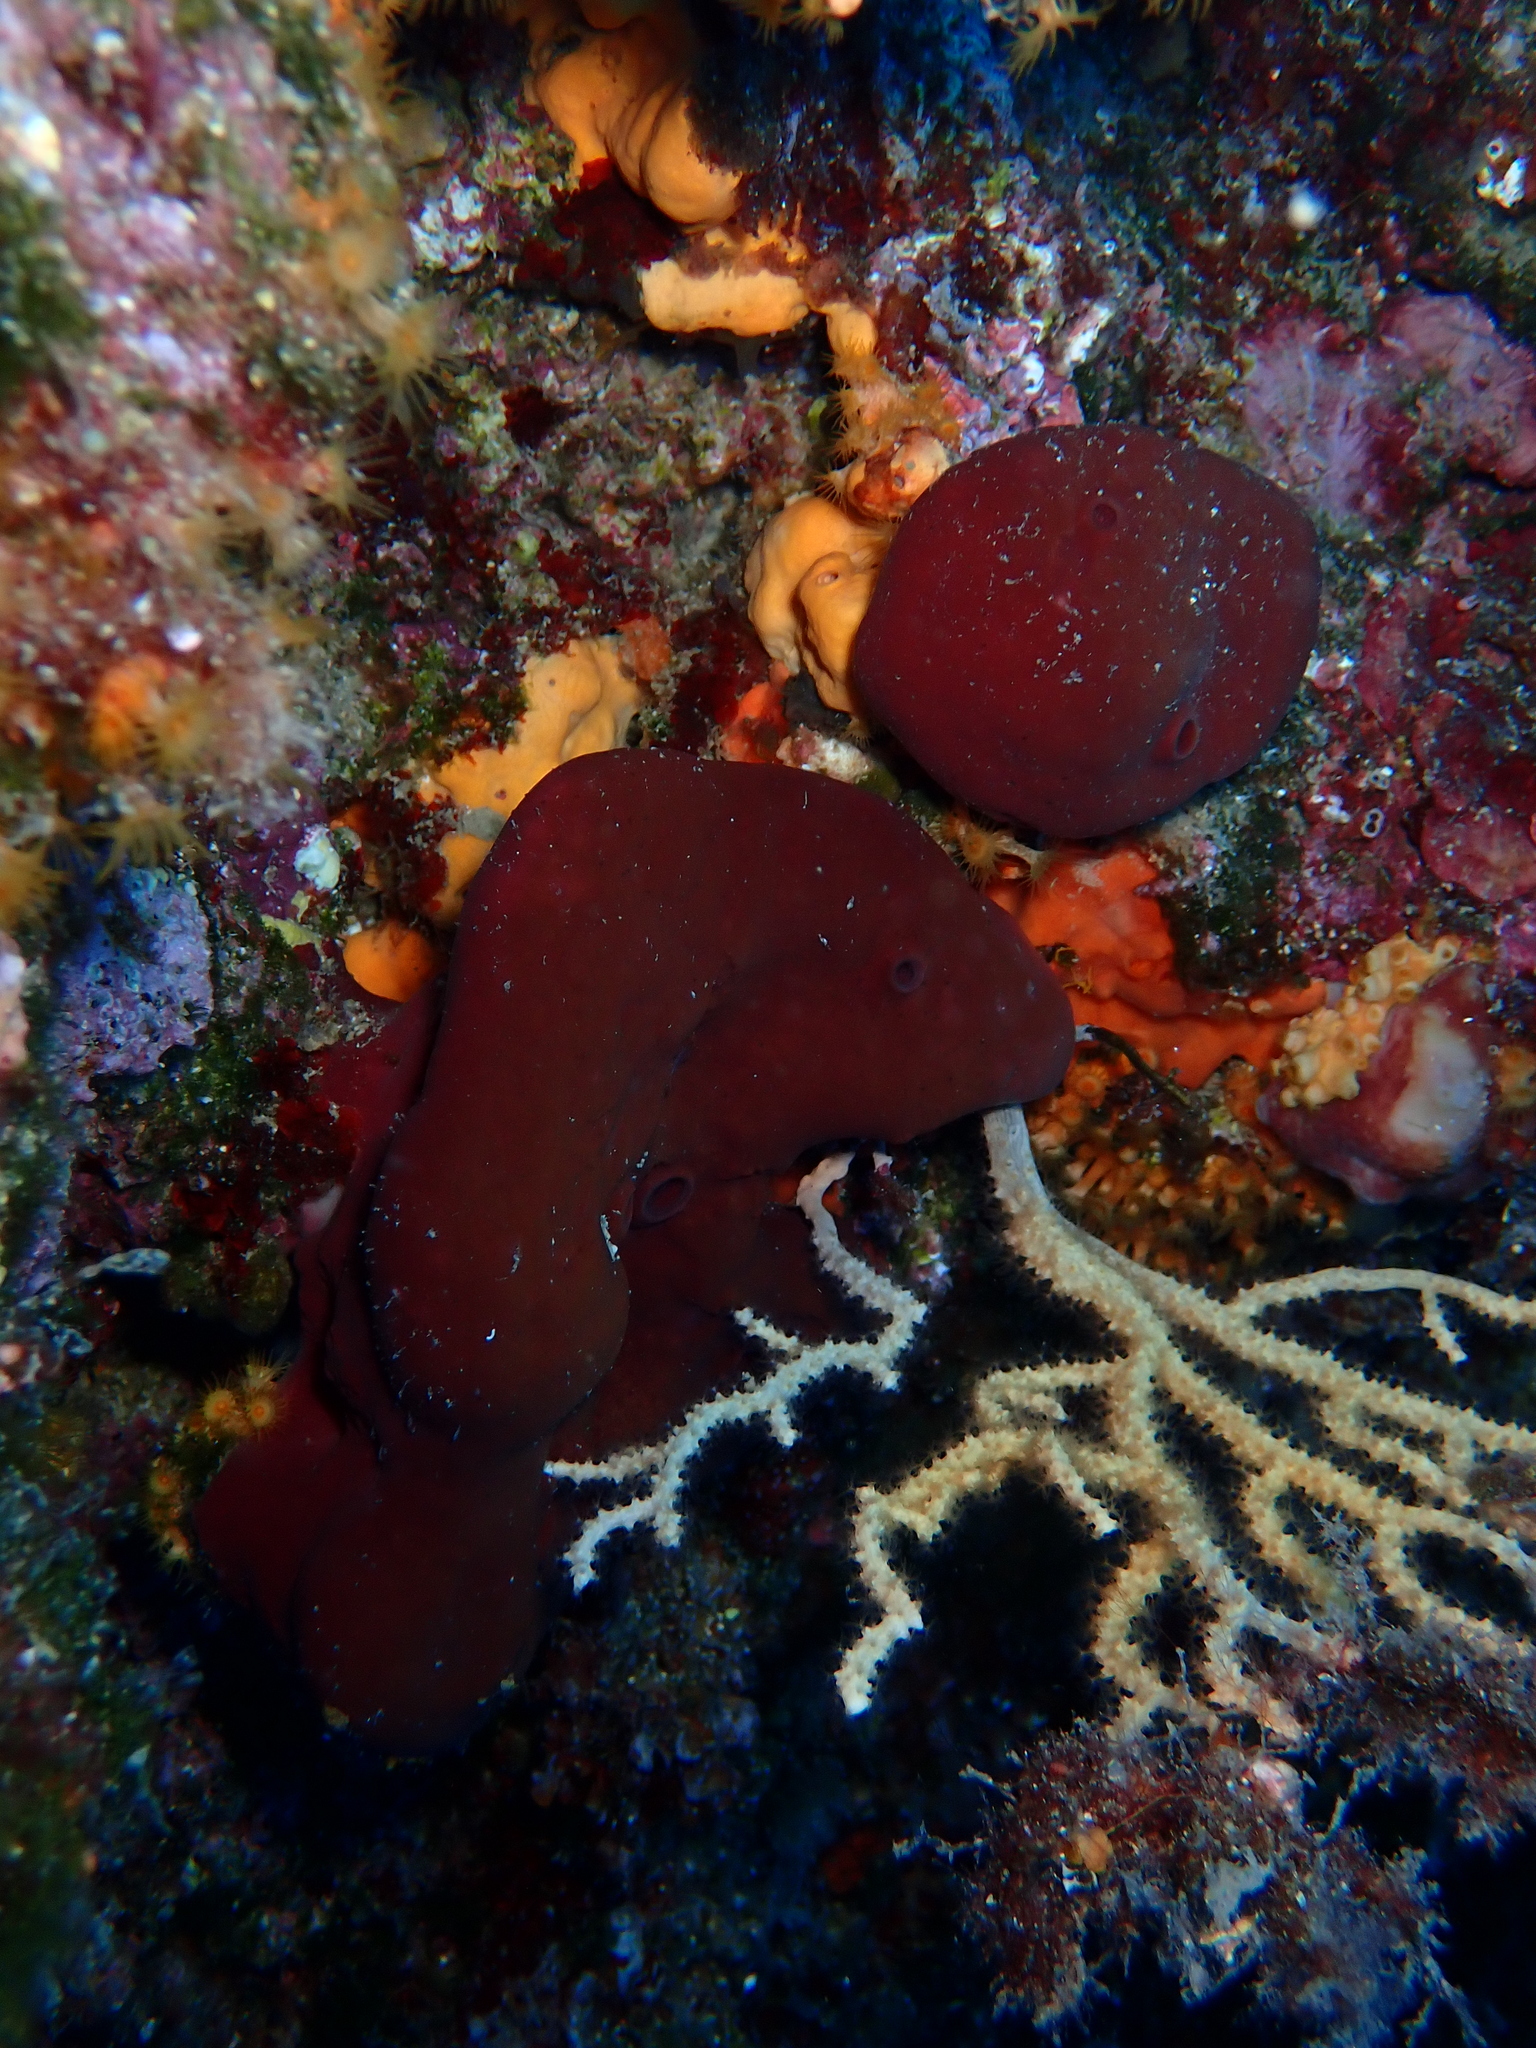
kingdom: Animalia
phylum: Porifera
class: Demospongiae
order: Haplosclerida
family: Petrosiidae
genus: Petrosia
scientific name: Petrosia ficiformis
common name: Stony sponge
